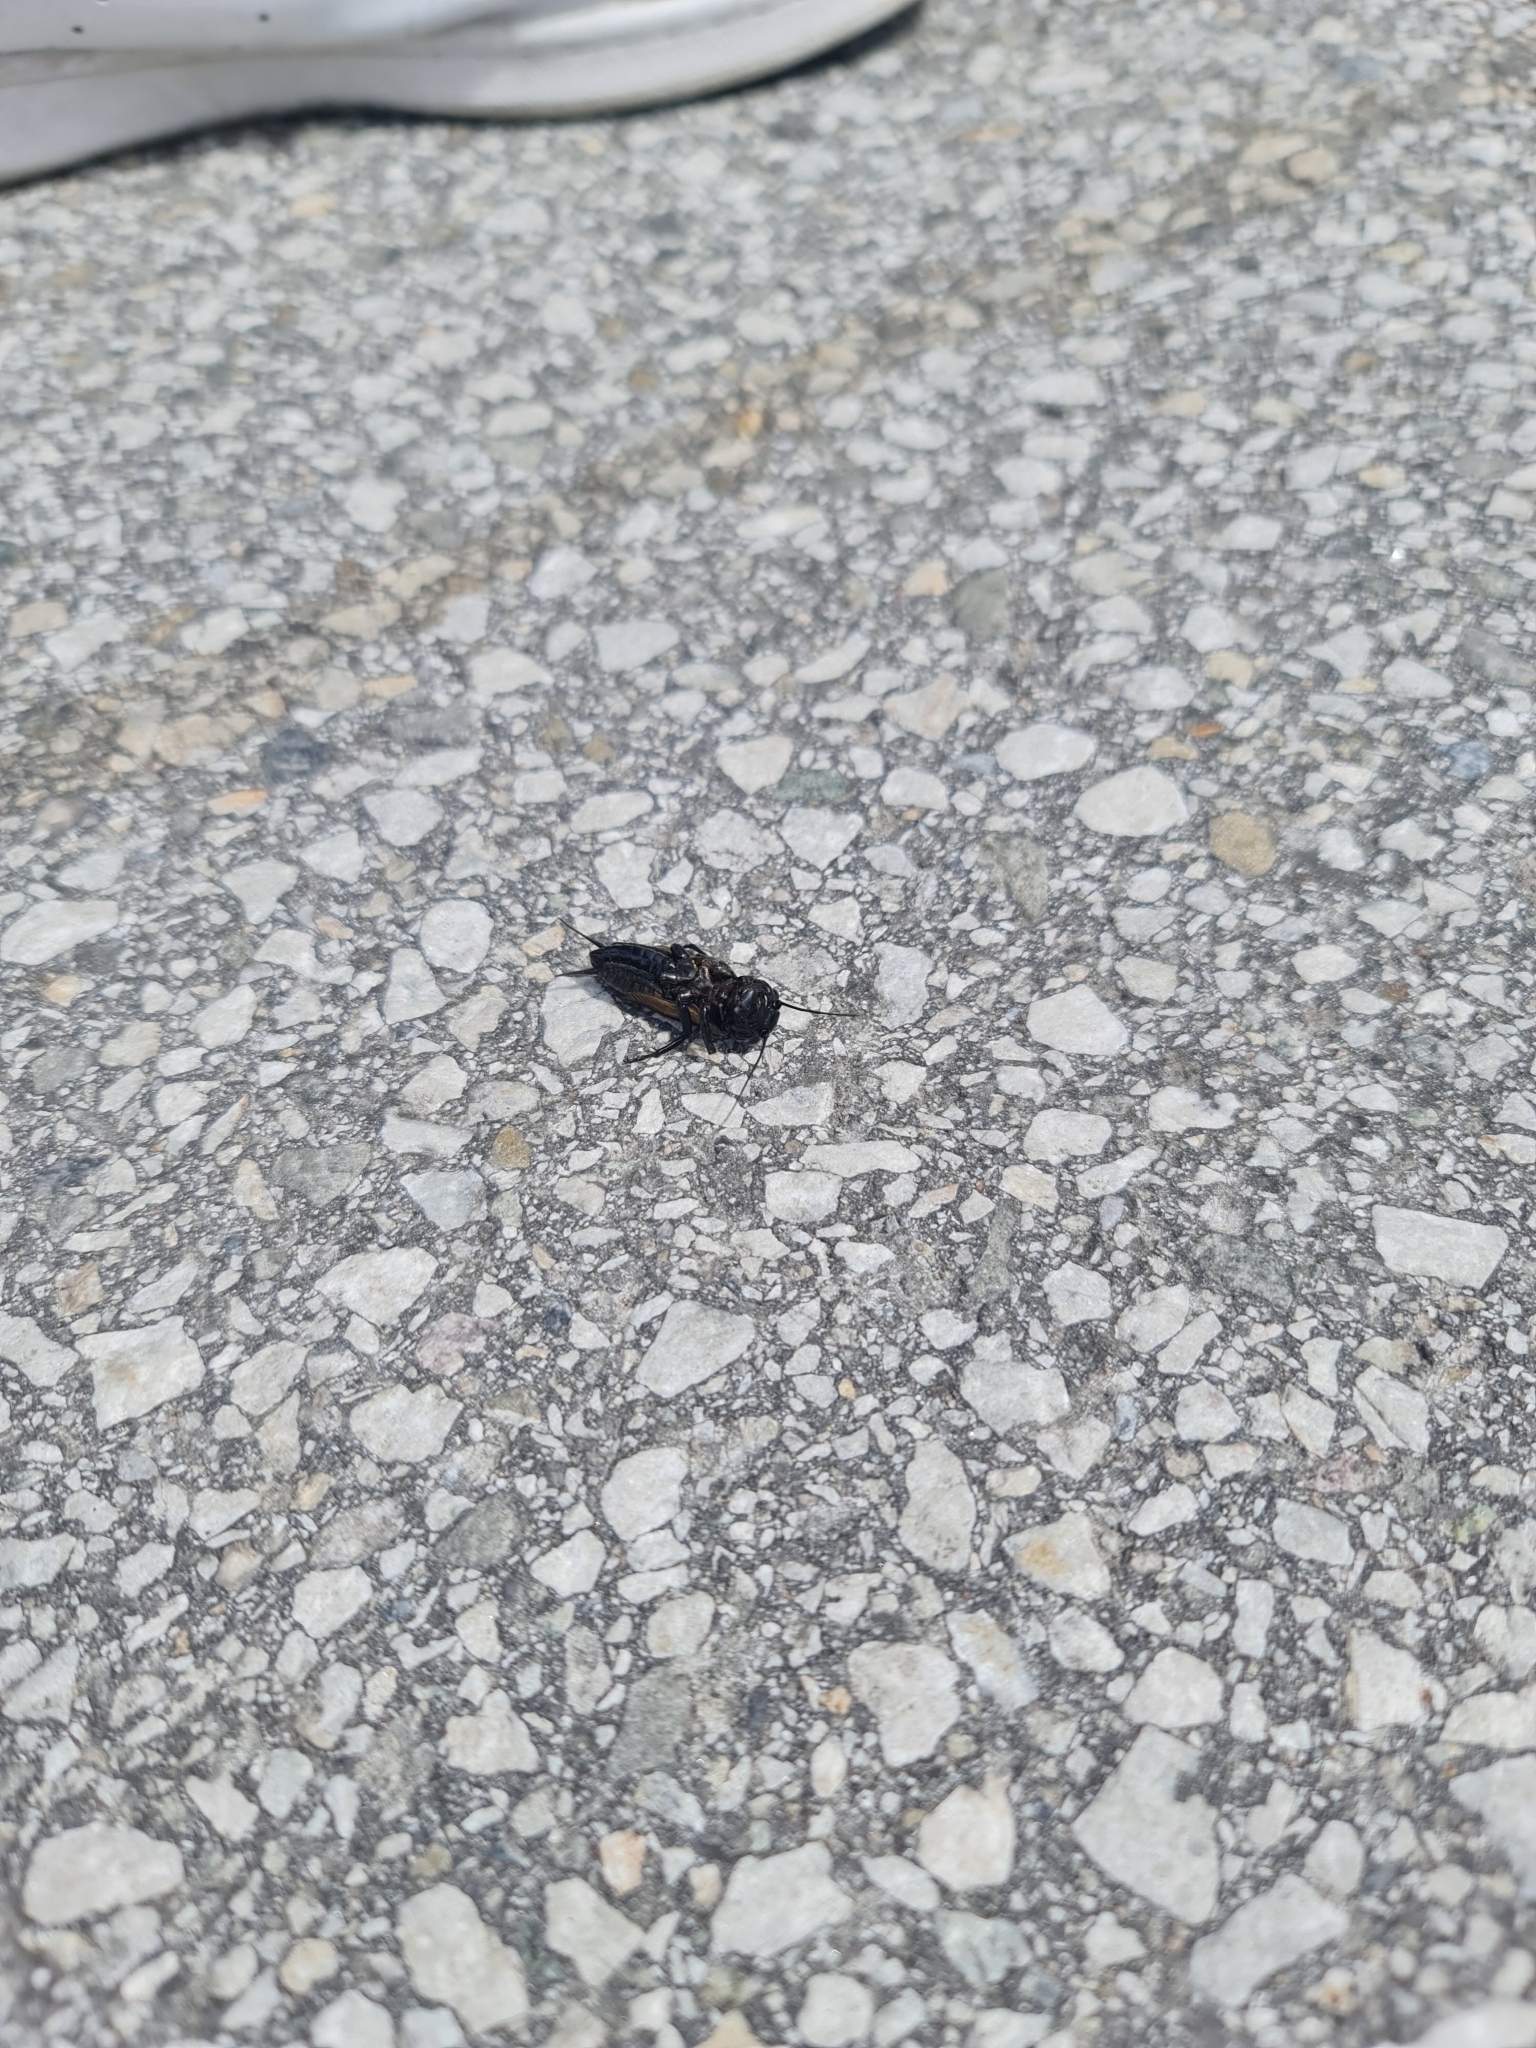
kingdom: Animalia
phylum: Arthropoda
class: Insecta
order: Orthoptera
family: Gryllidae
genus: Gryllus
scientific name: Gryllus campestris
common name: Field cricket
